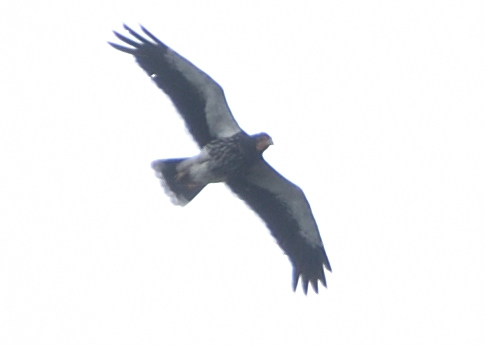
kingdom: Animalia
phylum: Chordata
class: Aves
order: Falconiformes
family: Falconidae
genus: Daptrius
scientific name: Daptrius
